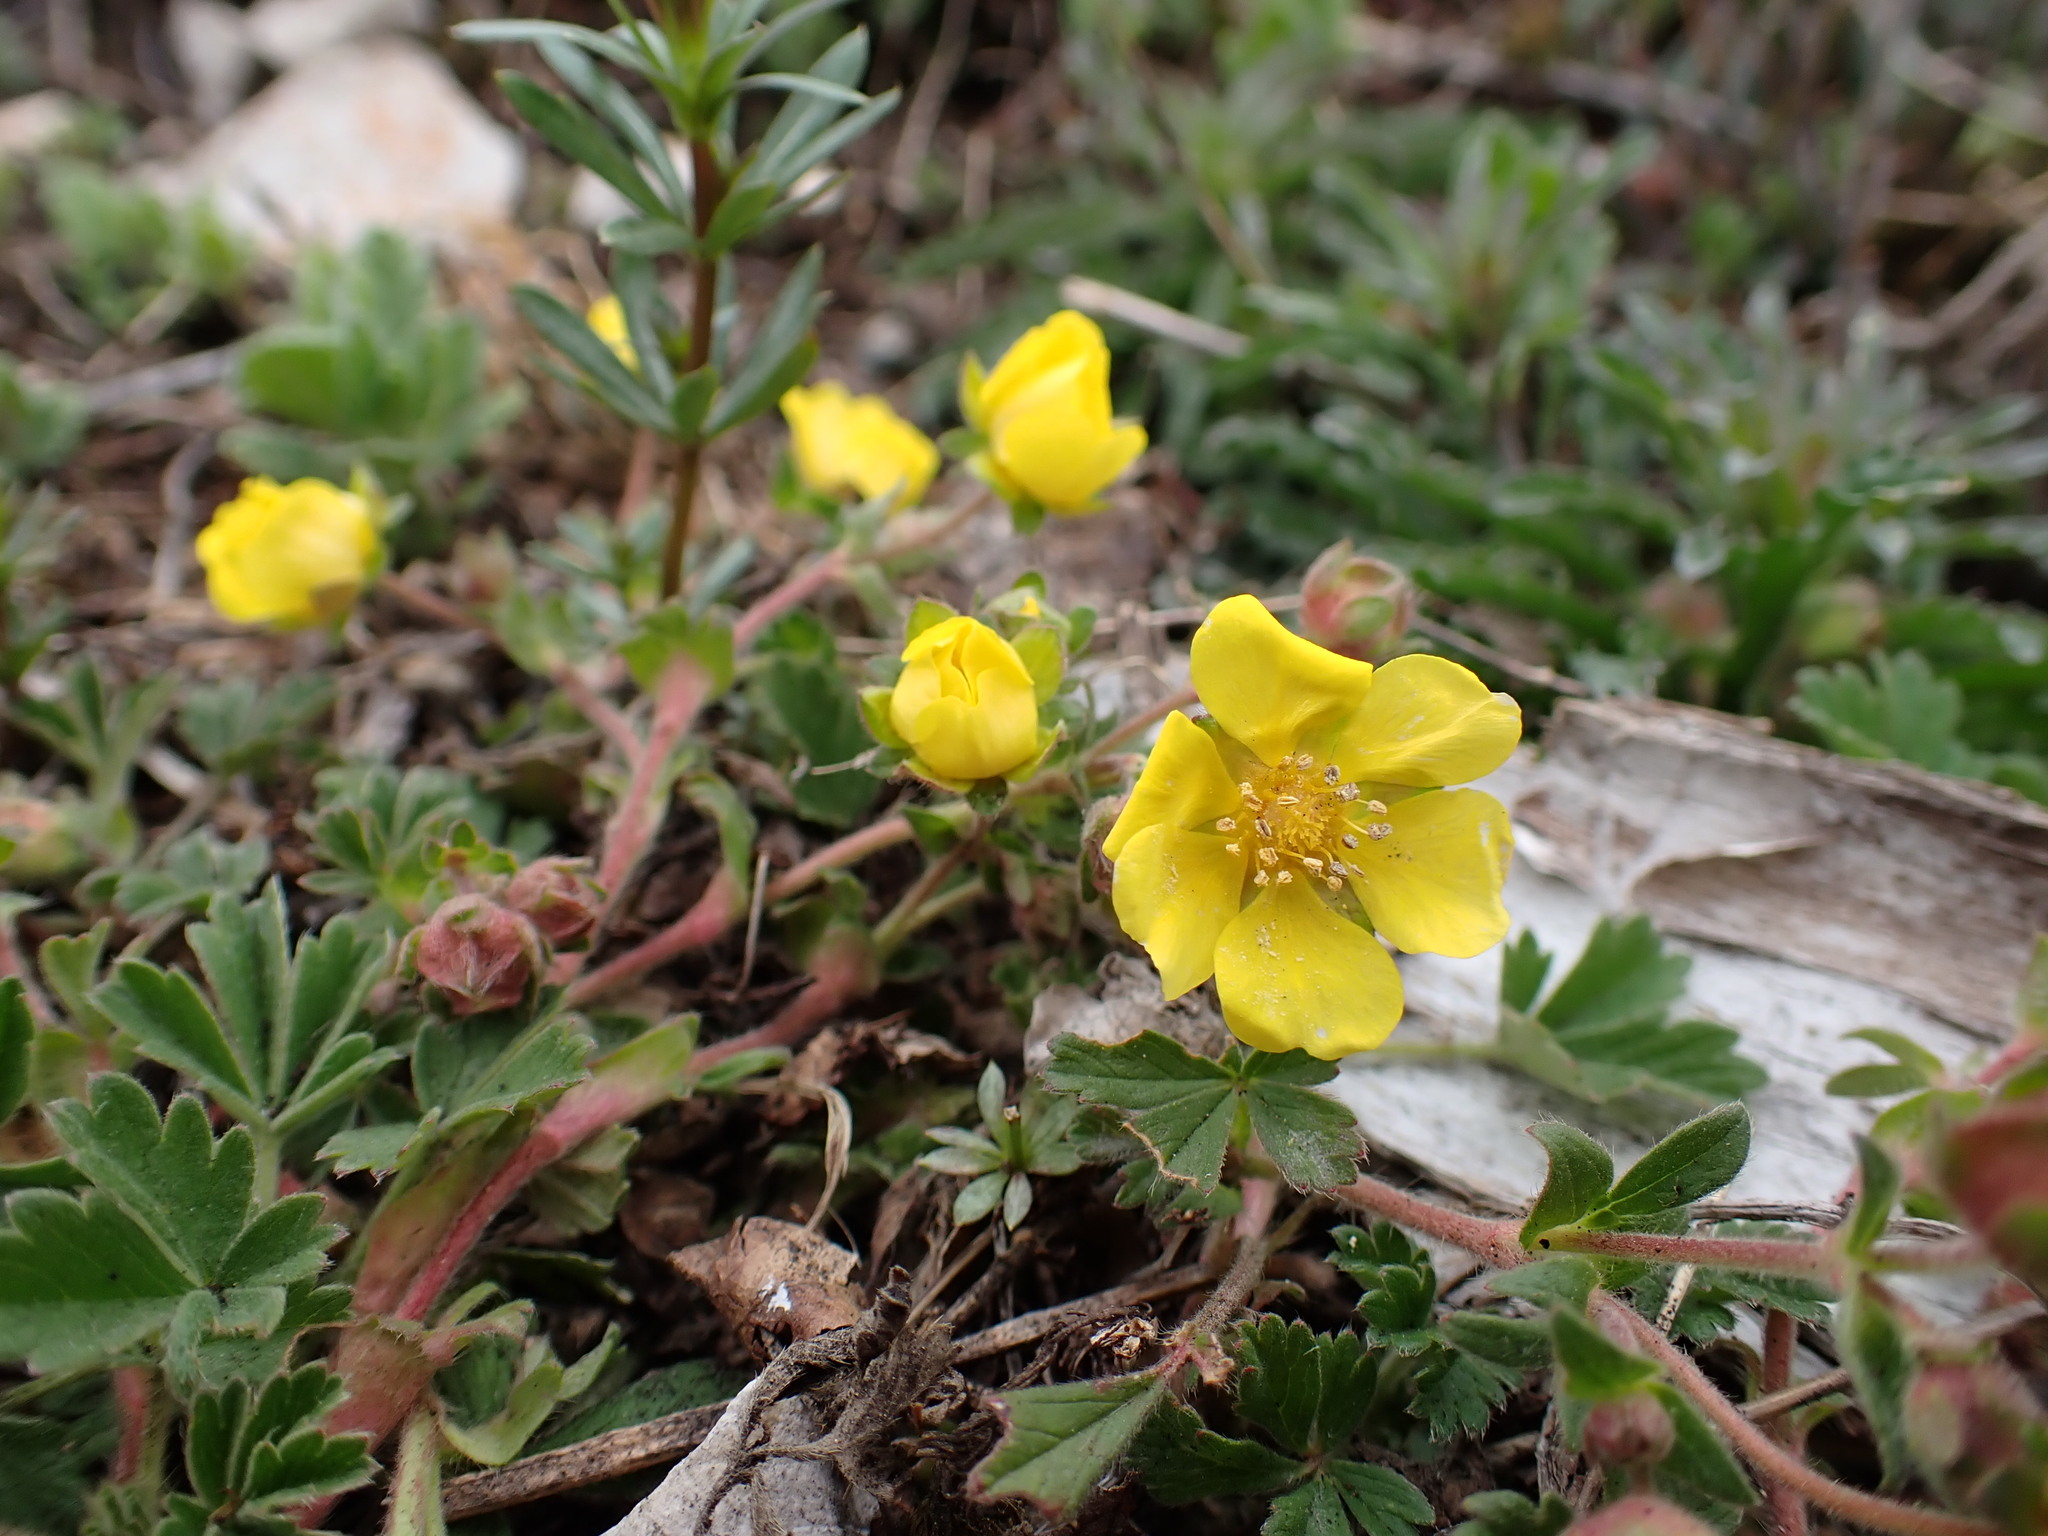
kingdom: Plantae
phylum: Tracheophyta
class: Magnoliopsida
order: Rosales
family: Rosaceae
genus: Potentilla
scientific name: Potentilla incana
